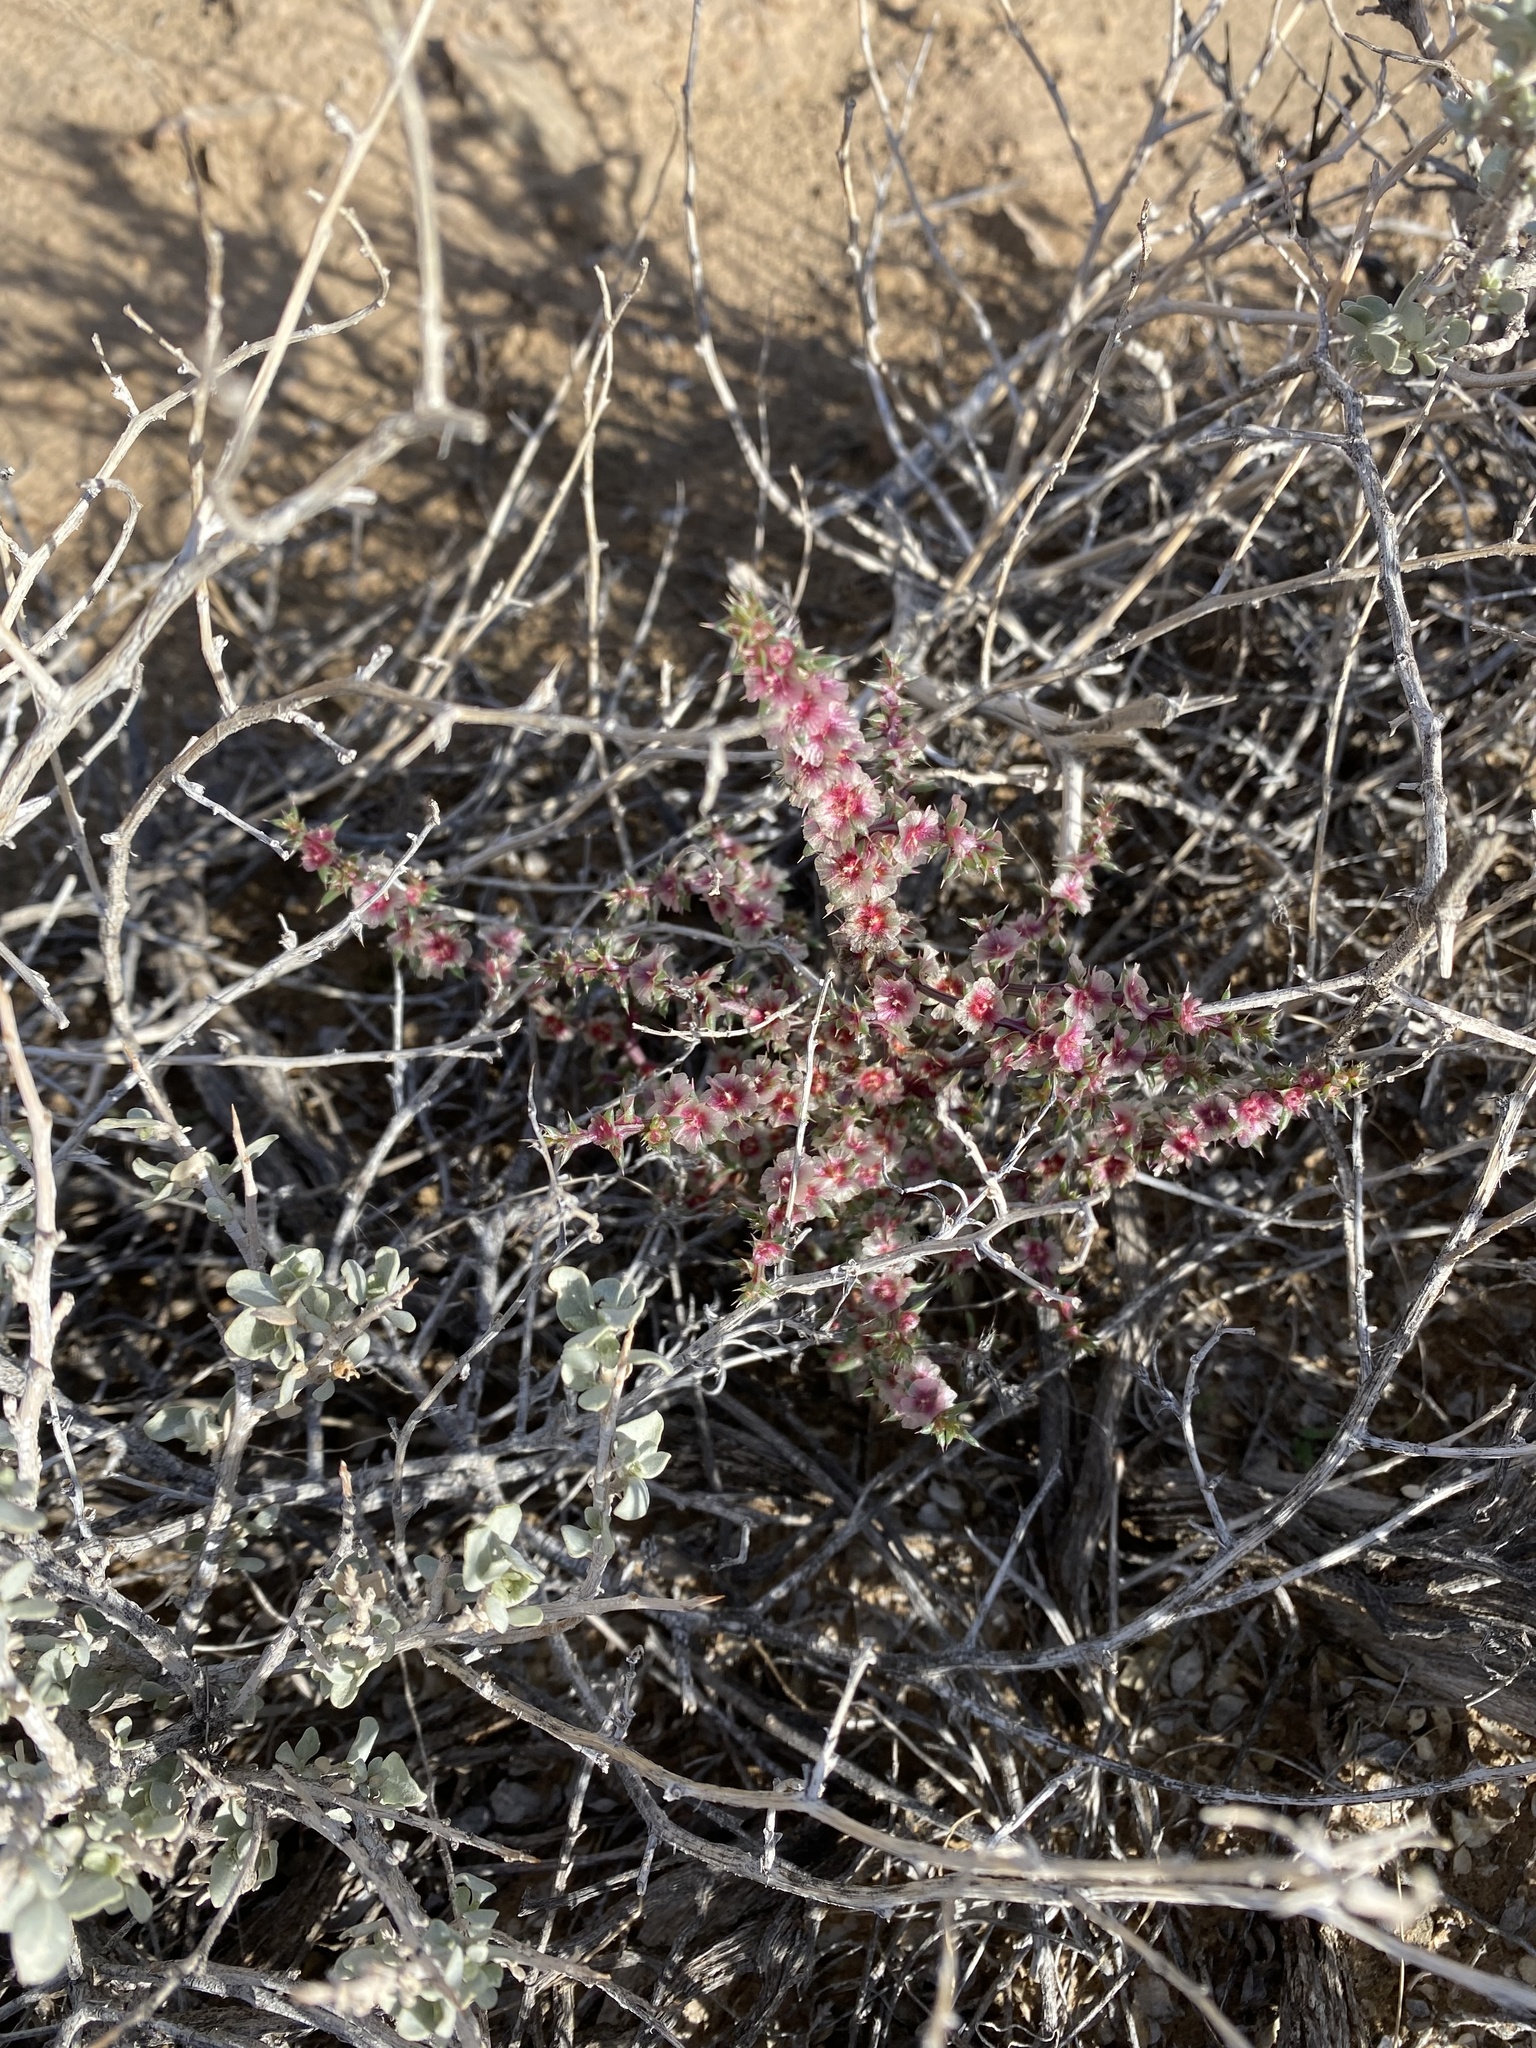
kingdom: Plantae
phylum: Tracheophyta
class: Magnoliopsida
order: Caryophyllales
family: Amaranthaceae
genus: Salsola
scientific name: Salsola tragus
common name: Prickly russian thistle
